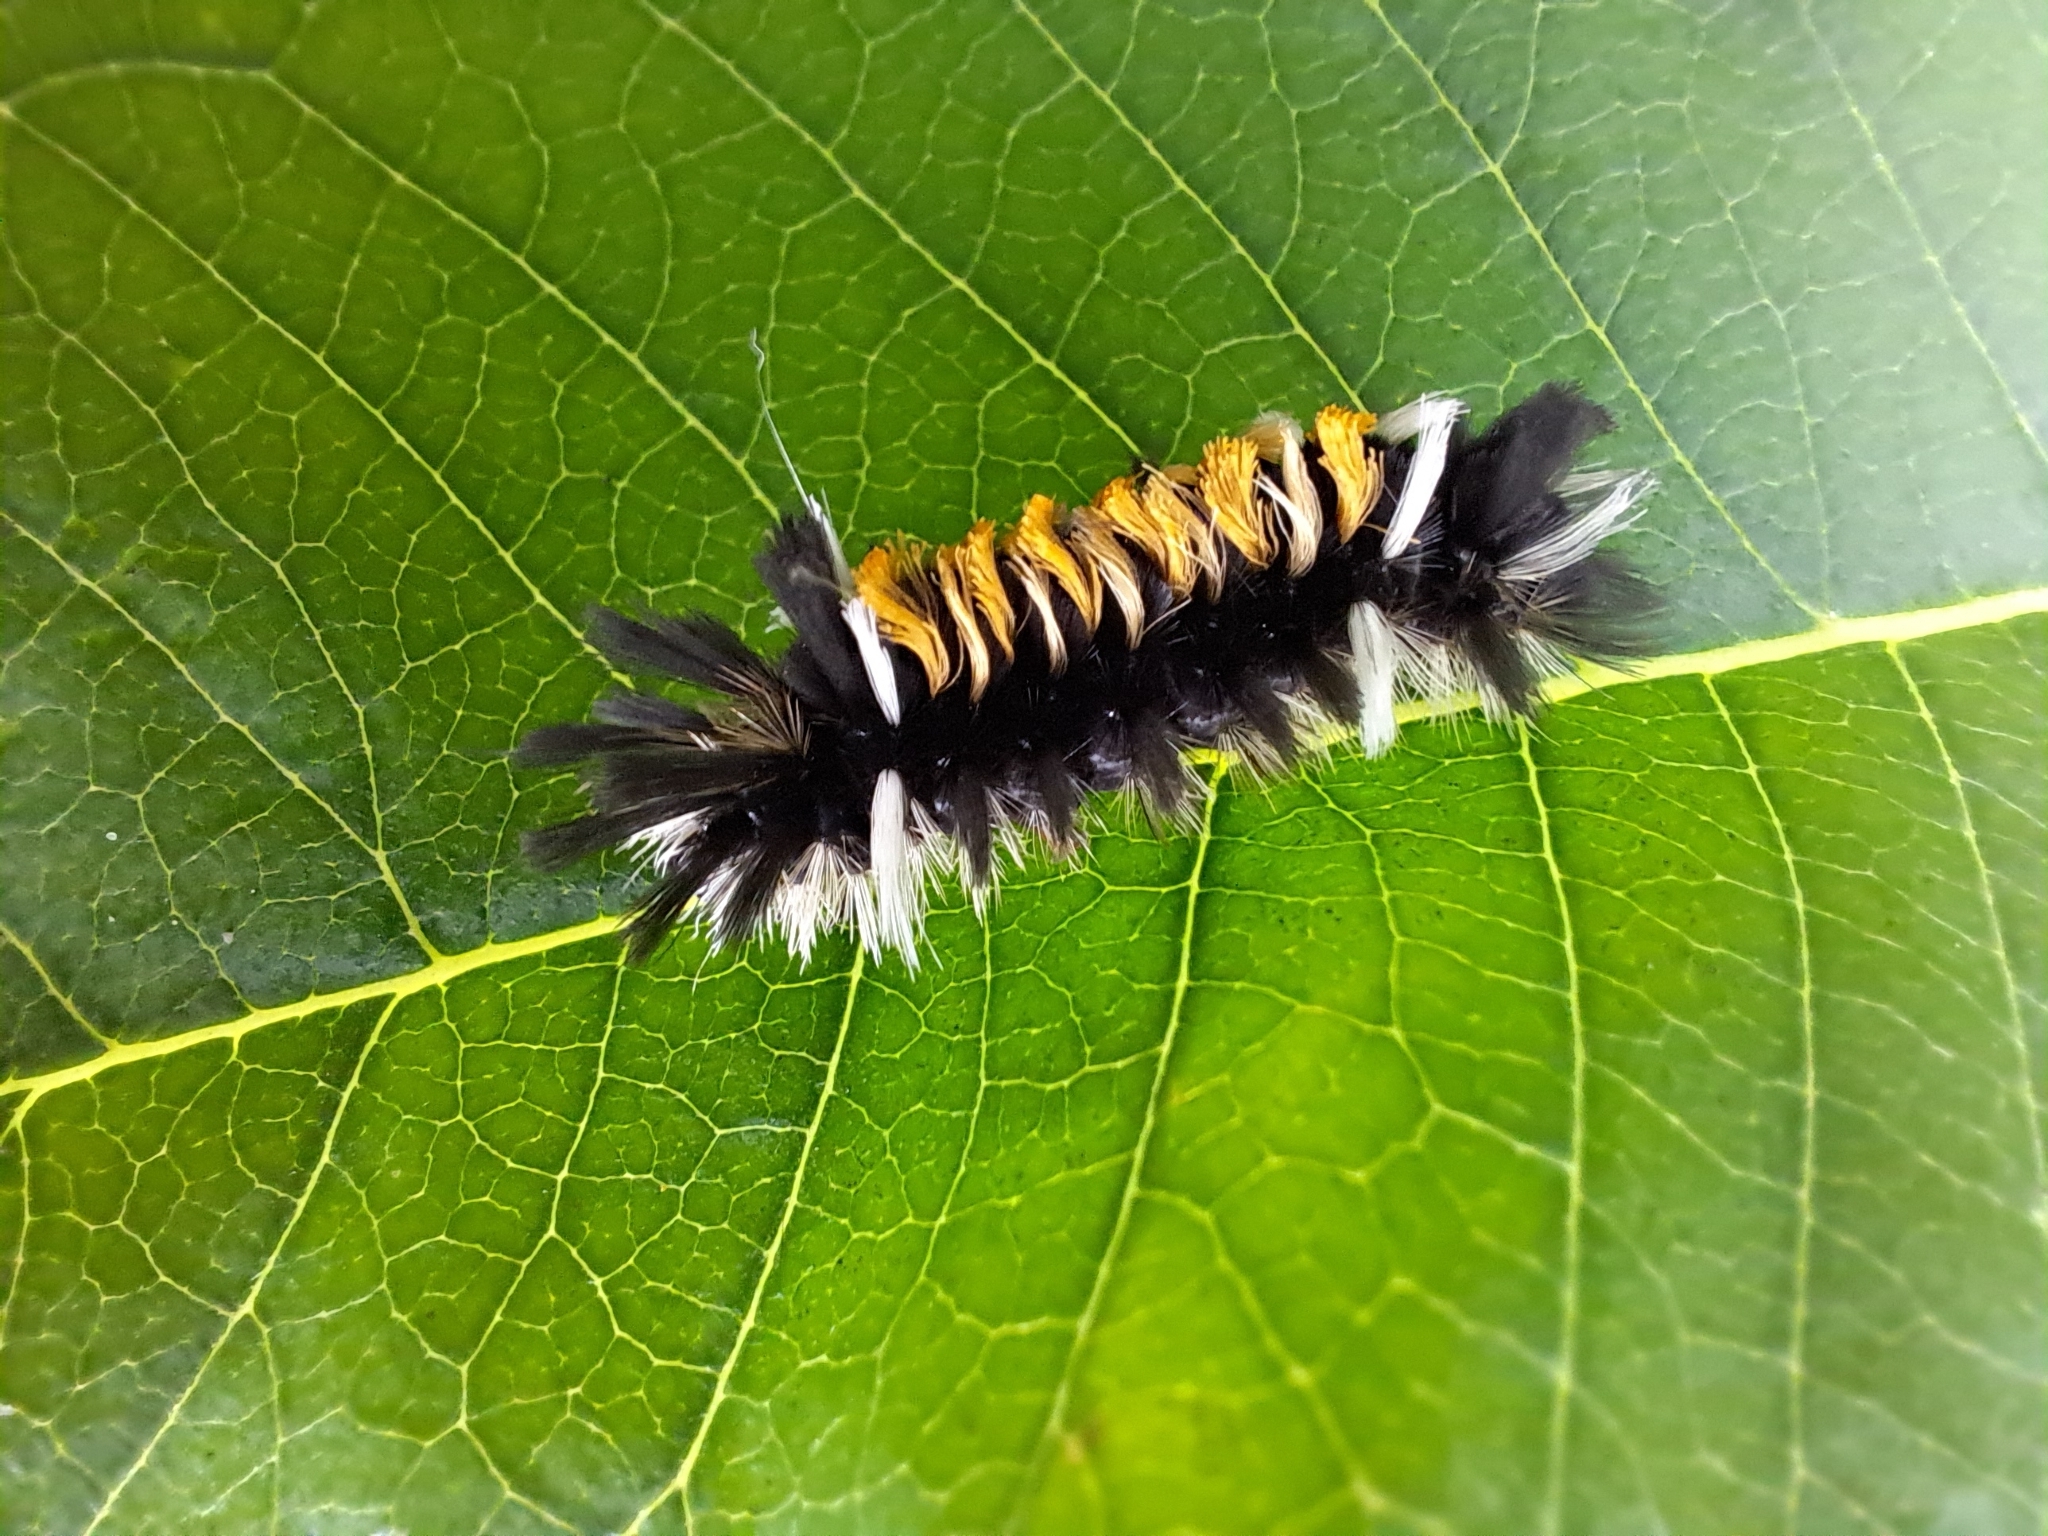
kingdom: Animalia
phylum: Arthropoda
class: Insecta
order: Lepidoptera
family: Erebidae
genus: Euchaetes
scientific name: Euchaetes egle
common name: Milkweed tussock moth
